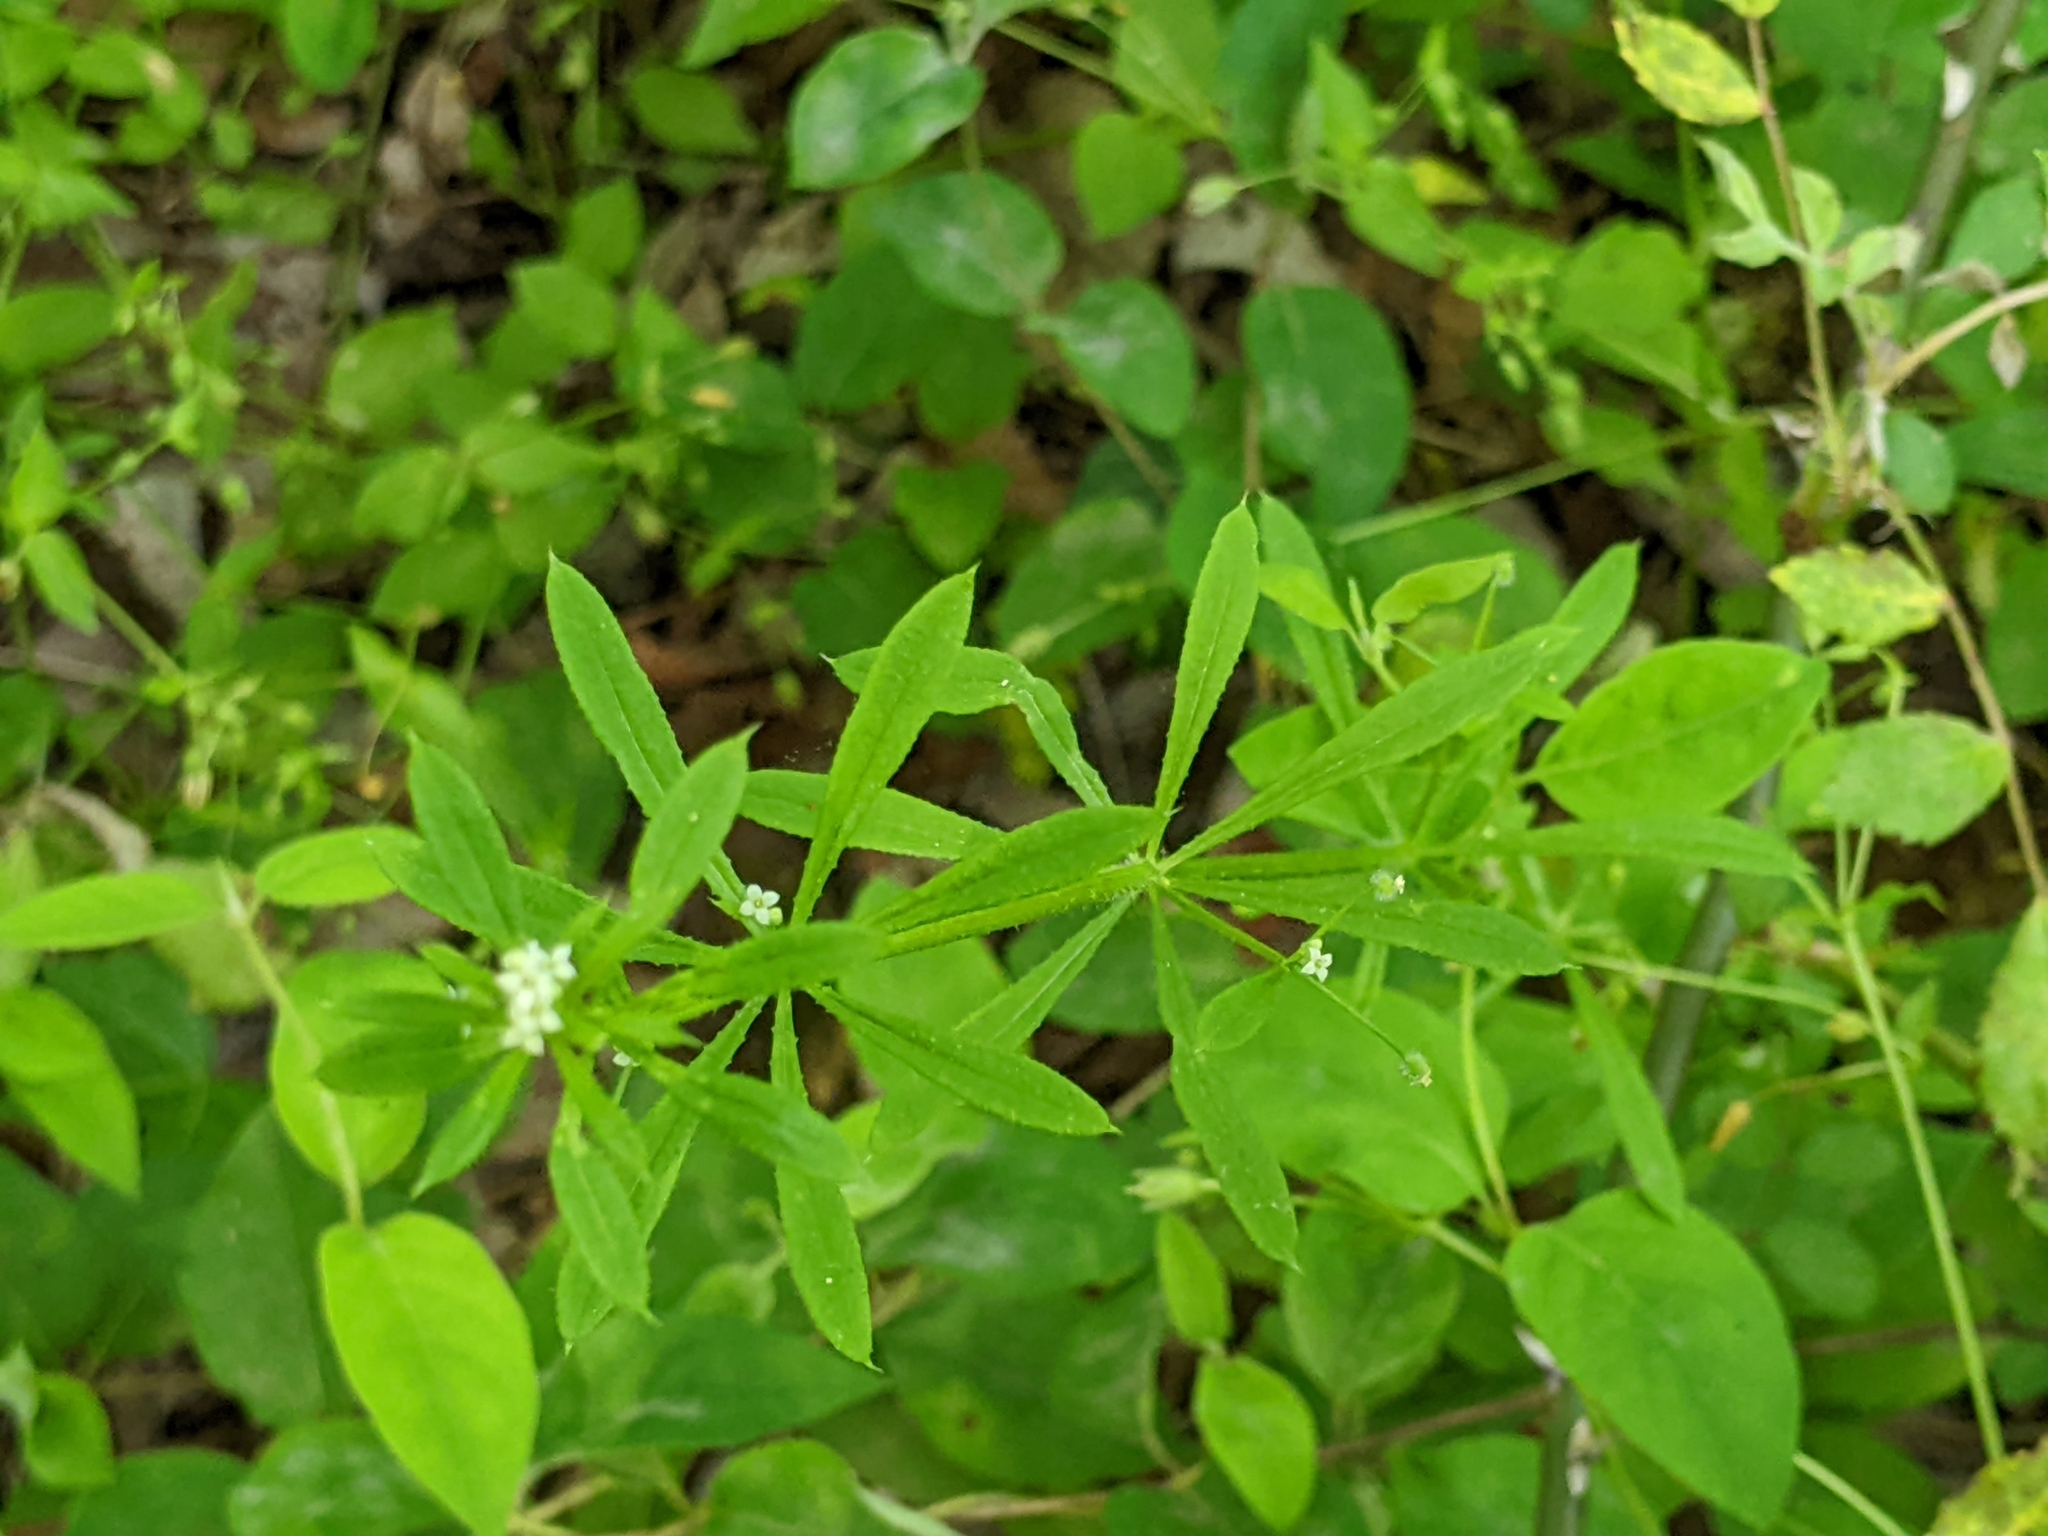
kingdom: Plantae
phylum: Tracheophyta
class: Magnoliopsida
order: Gentianales
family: Rubiaceae
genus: Galium
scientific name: Galium aparine
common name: Cleavers
